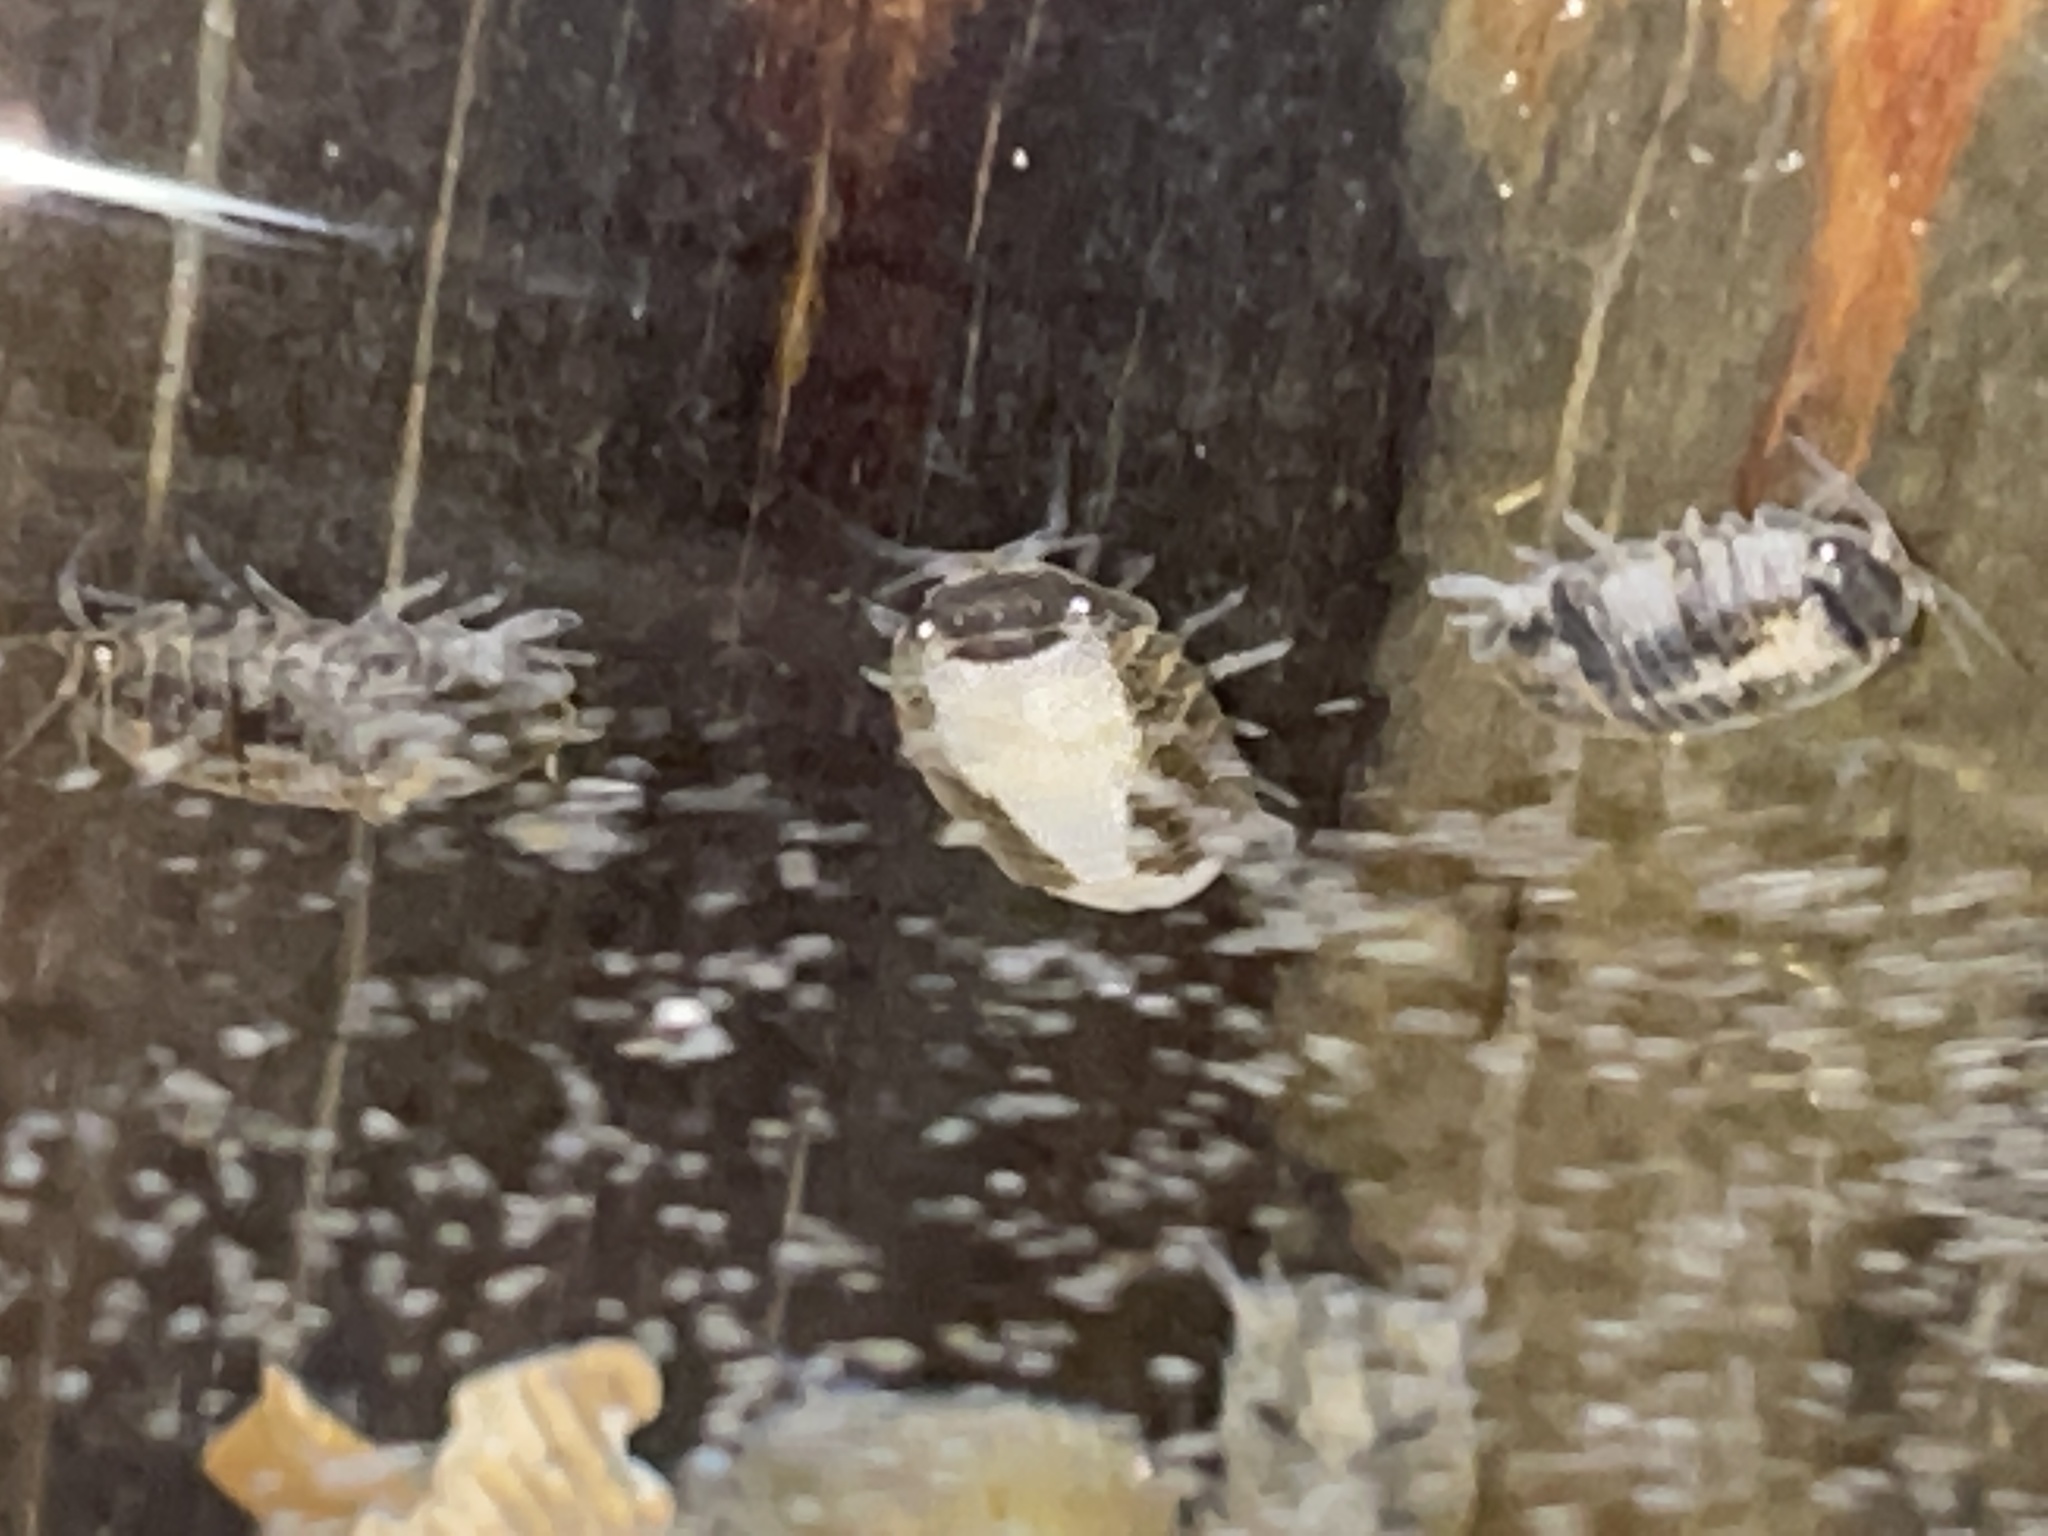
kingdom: Animalia
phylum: Arthropoda
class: Malacostraca
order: Isopoda
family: Sphaeromatidae
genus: Sphaeroma
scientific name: Sphaeroma quadridentatum
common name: Sea pill bug
